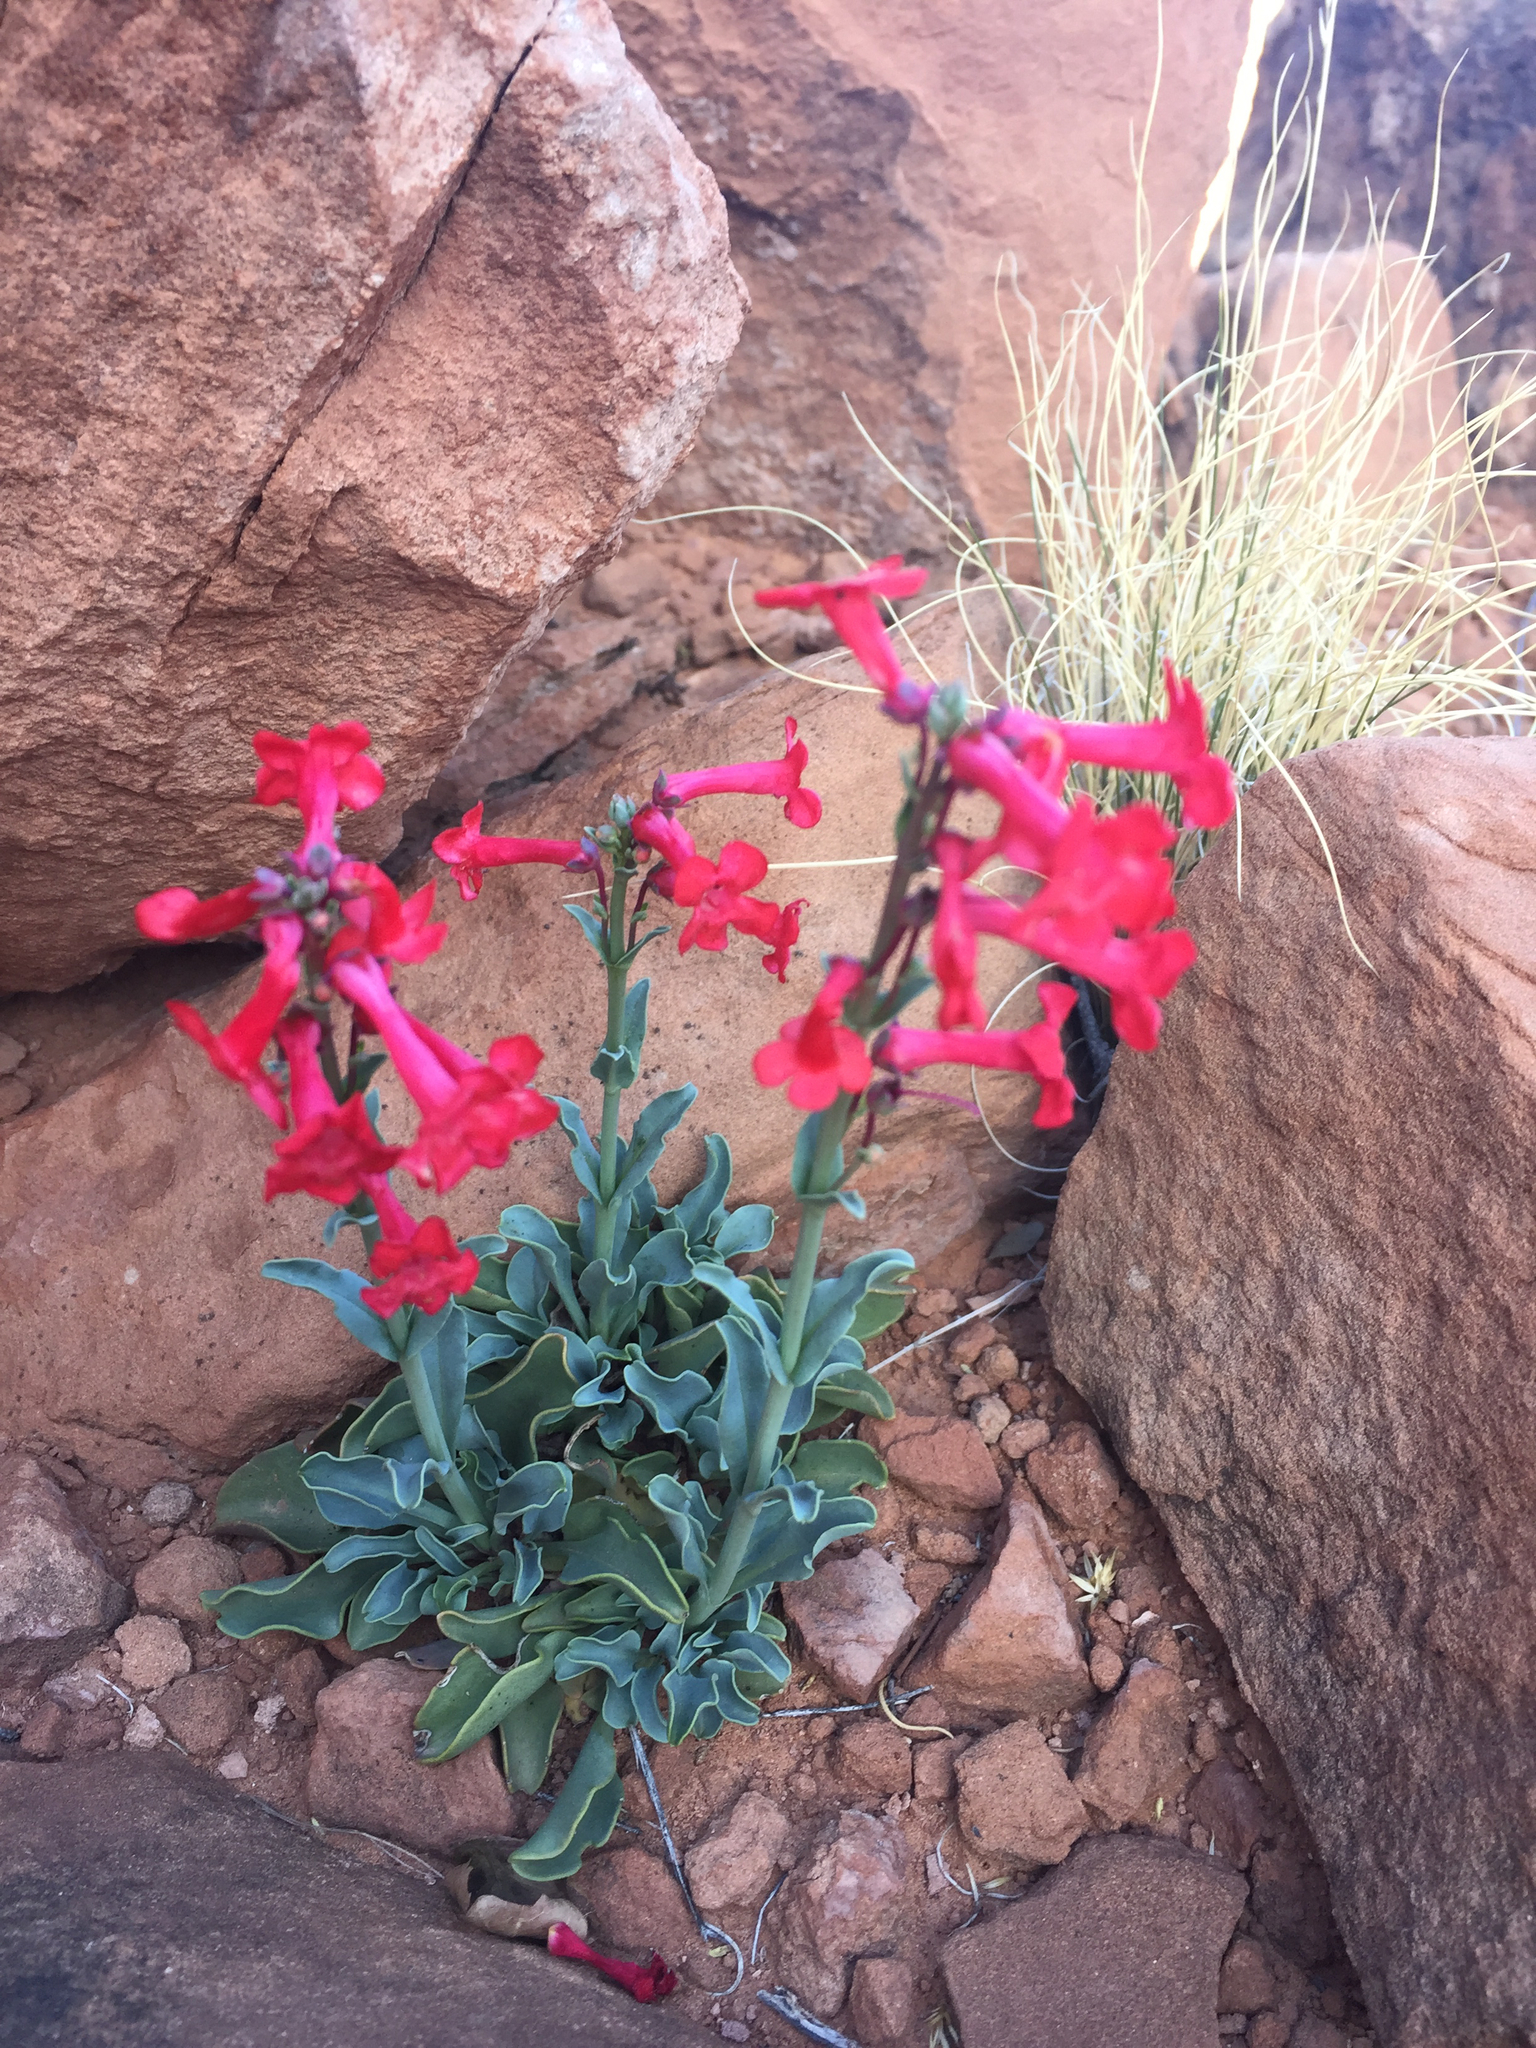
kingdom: Plantae
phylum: Tracheophyta
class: Magnoliopsida
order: Lamiales
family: Plantaginaceae
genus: Penstemon
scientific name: Penstemon utahensis
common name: Utah penstemon
